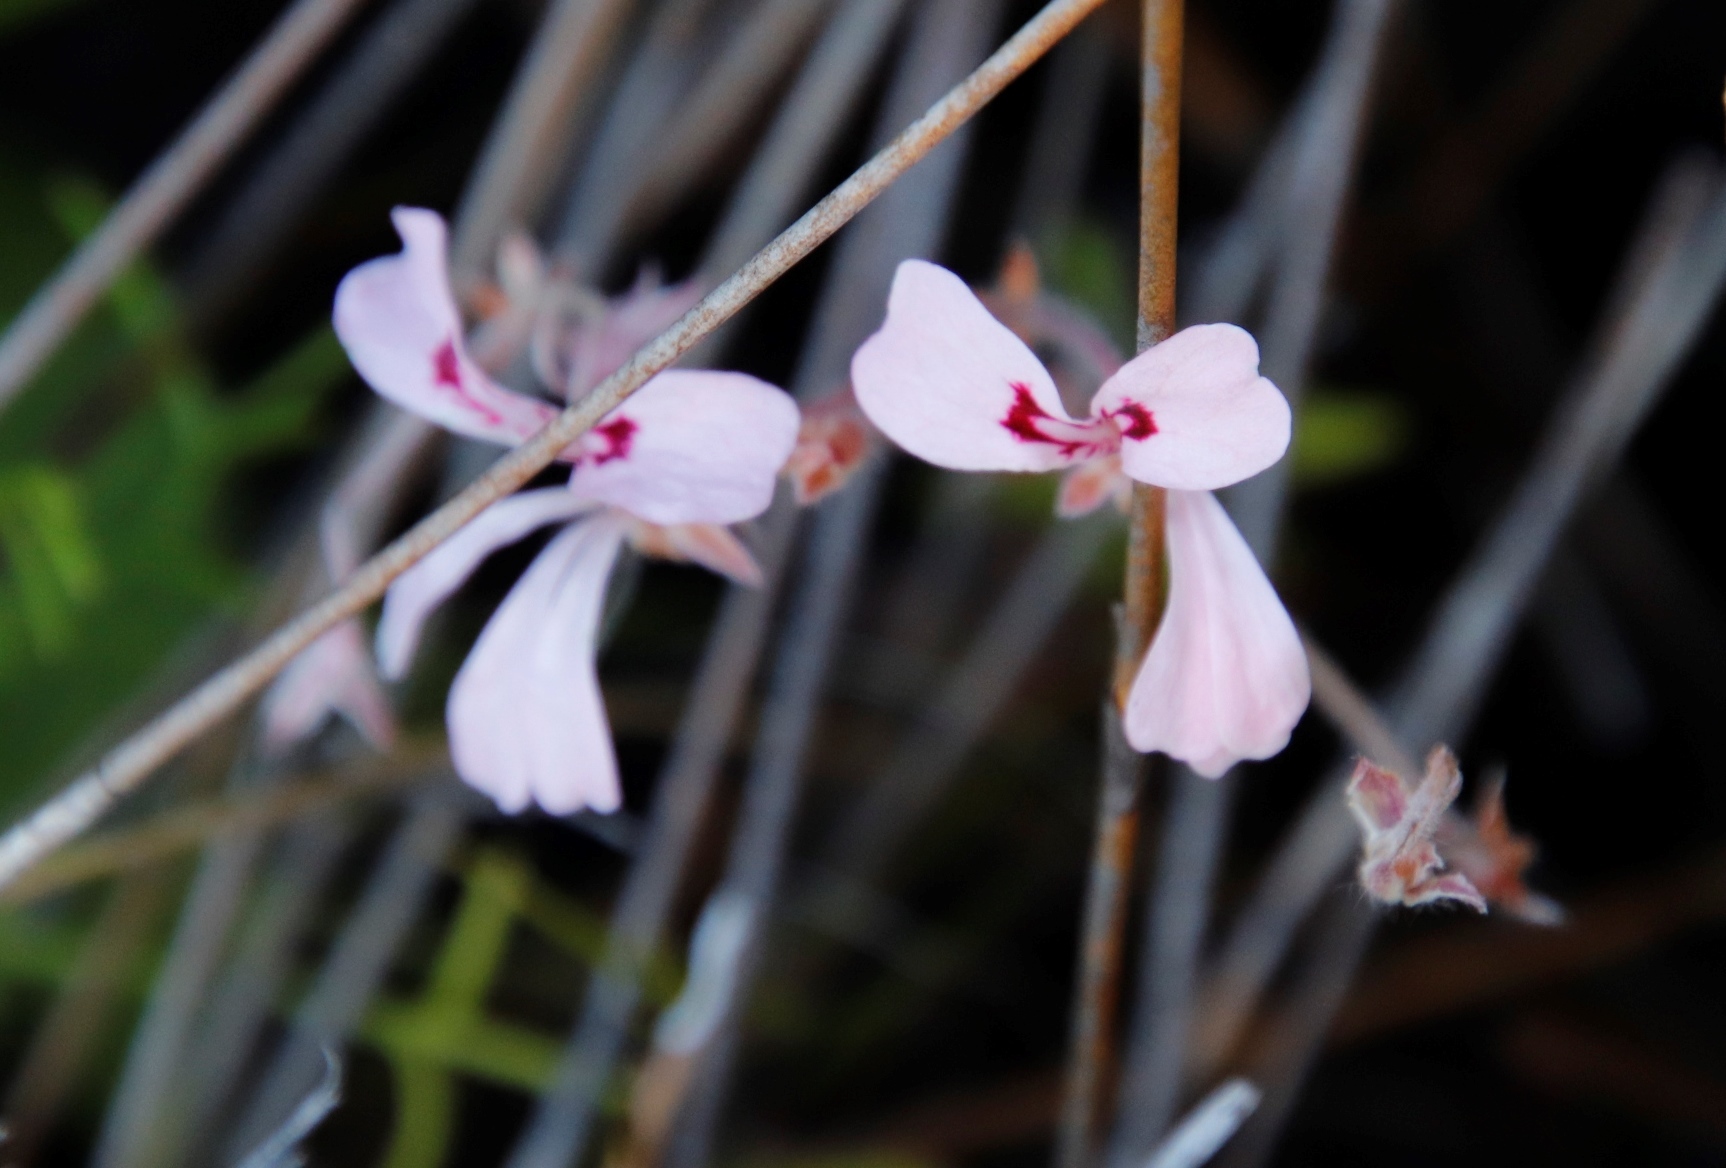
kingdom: Plantae
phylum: Tracheophyta
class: Magnoliopsida
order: Geraniales
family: Geraniaceae
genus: Pelargonium
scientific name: Pelargonium pinnatum
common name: Pinnated pelargonium
